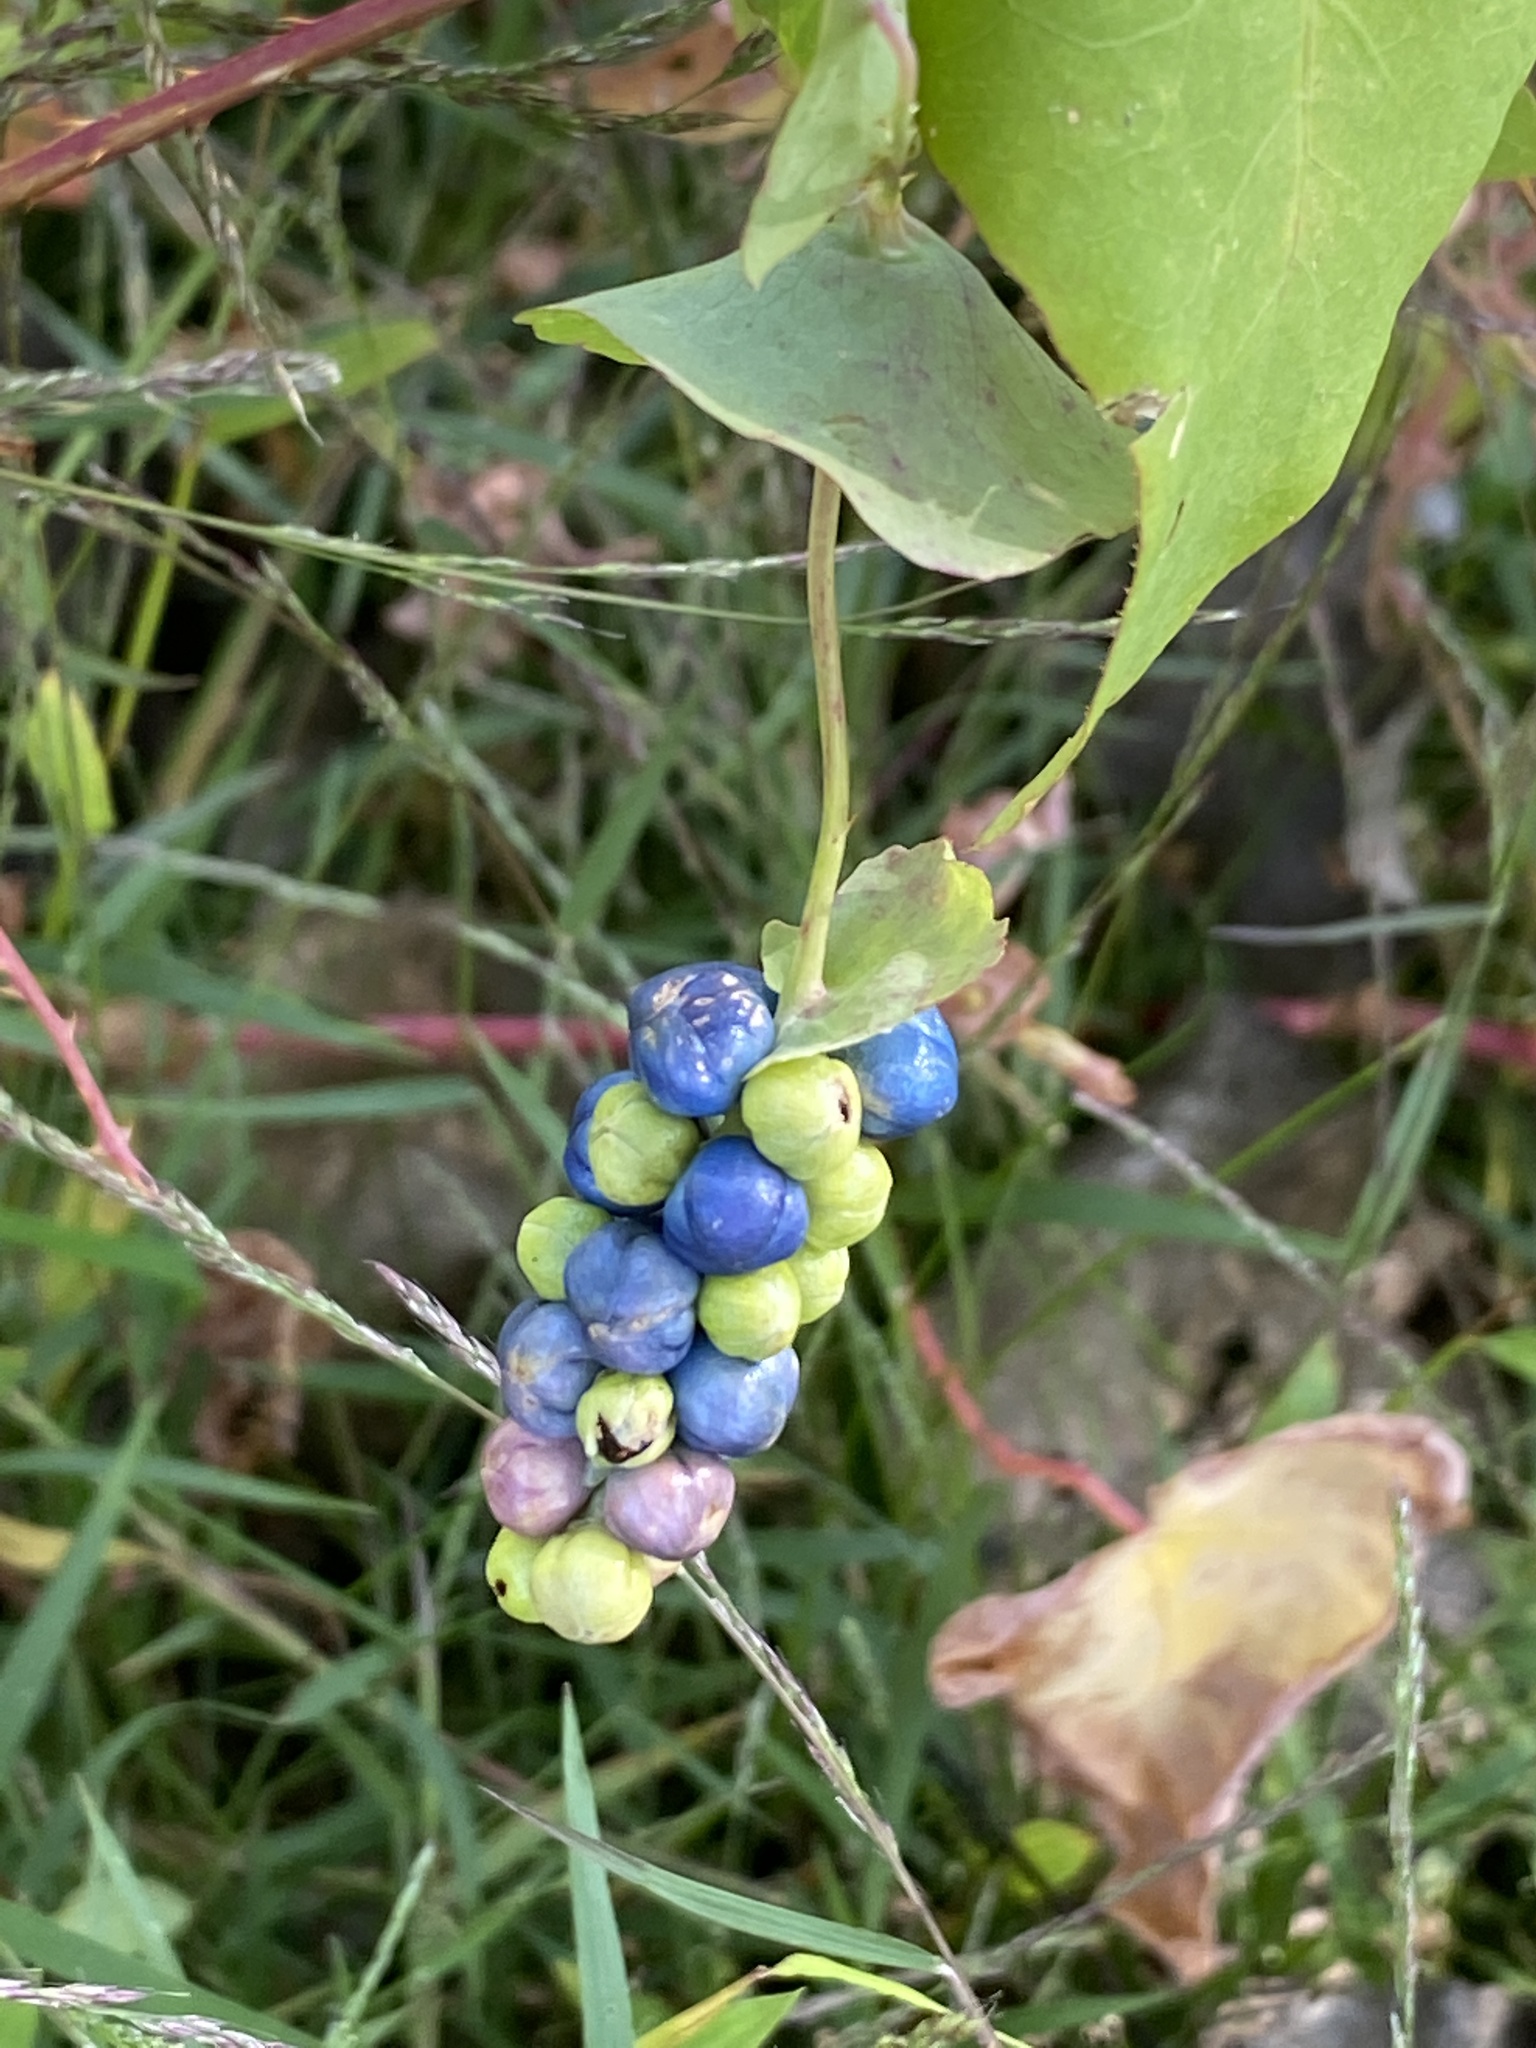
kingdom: Plantae
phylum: Tracheophyta
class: Magnoliopsida
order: Caryophyllales
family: Polygonaceae
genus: Persicaria
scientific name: Persicaria perfoliata
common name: Asiatic tearthumb
